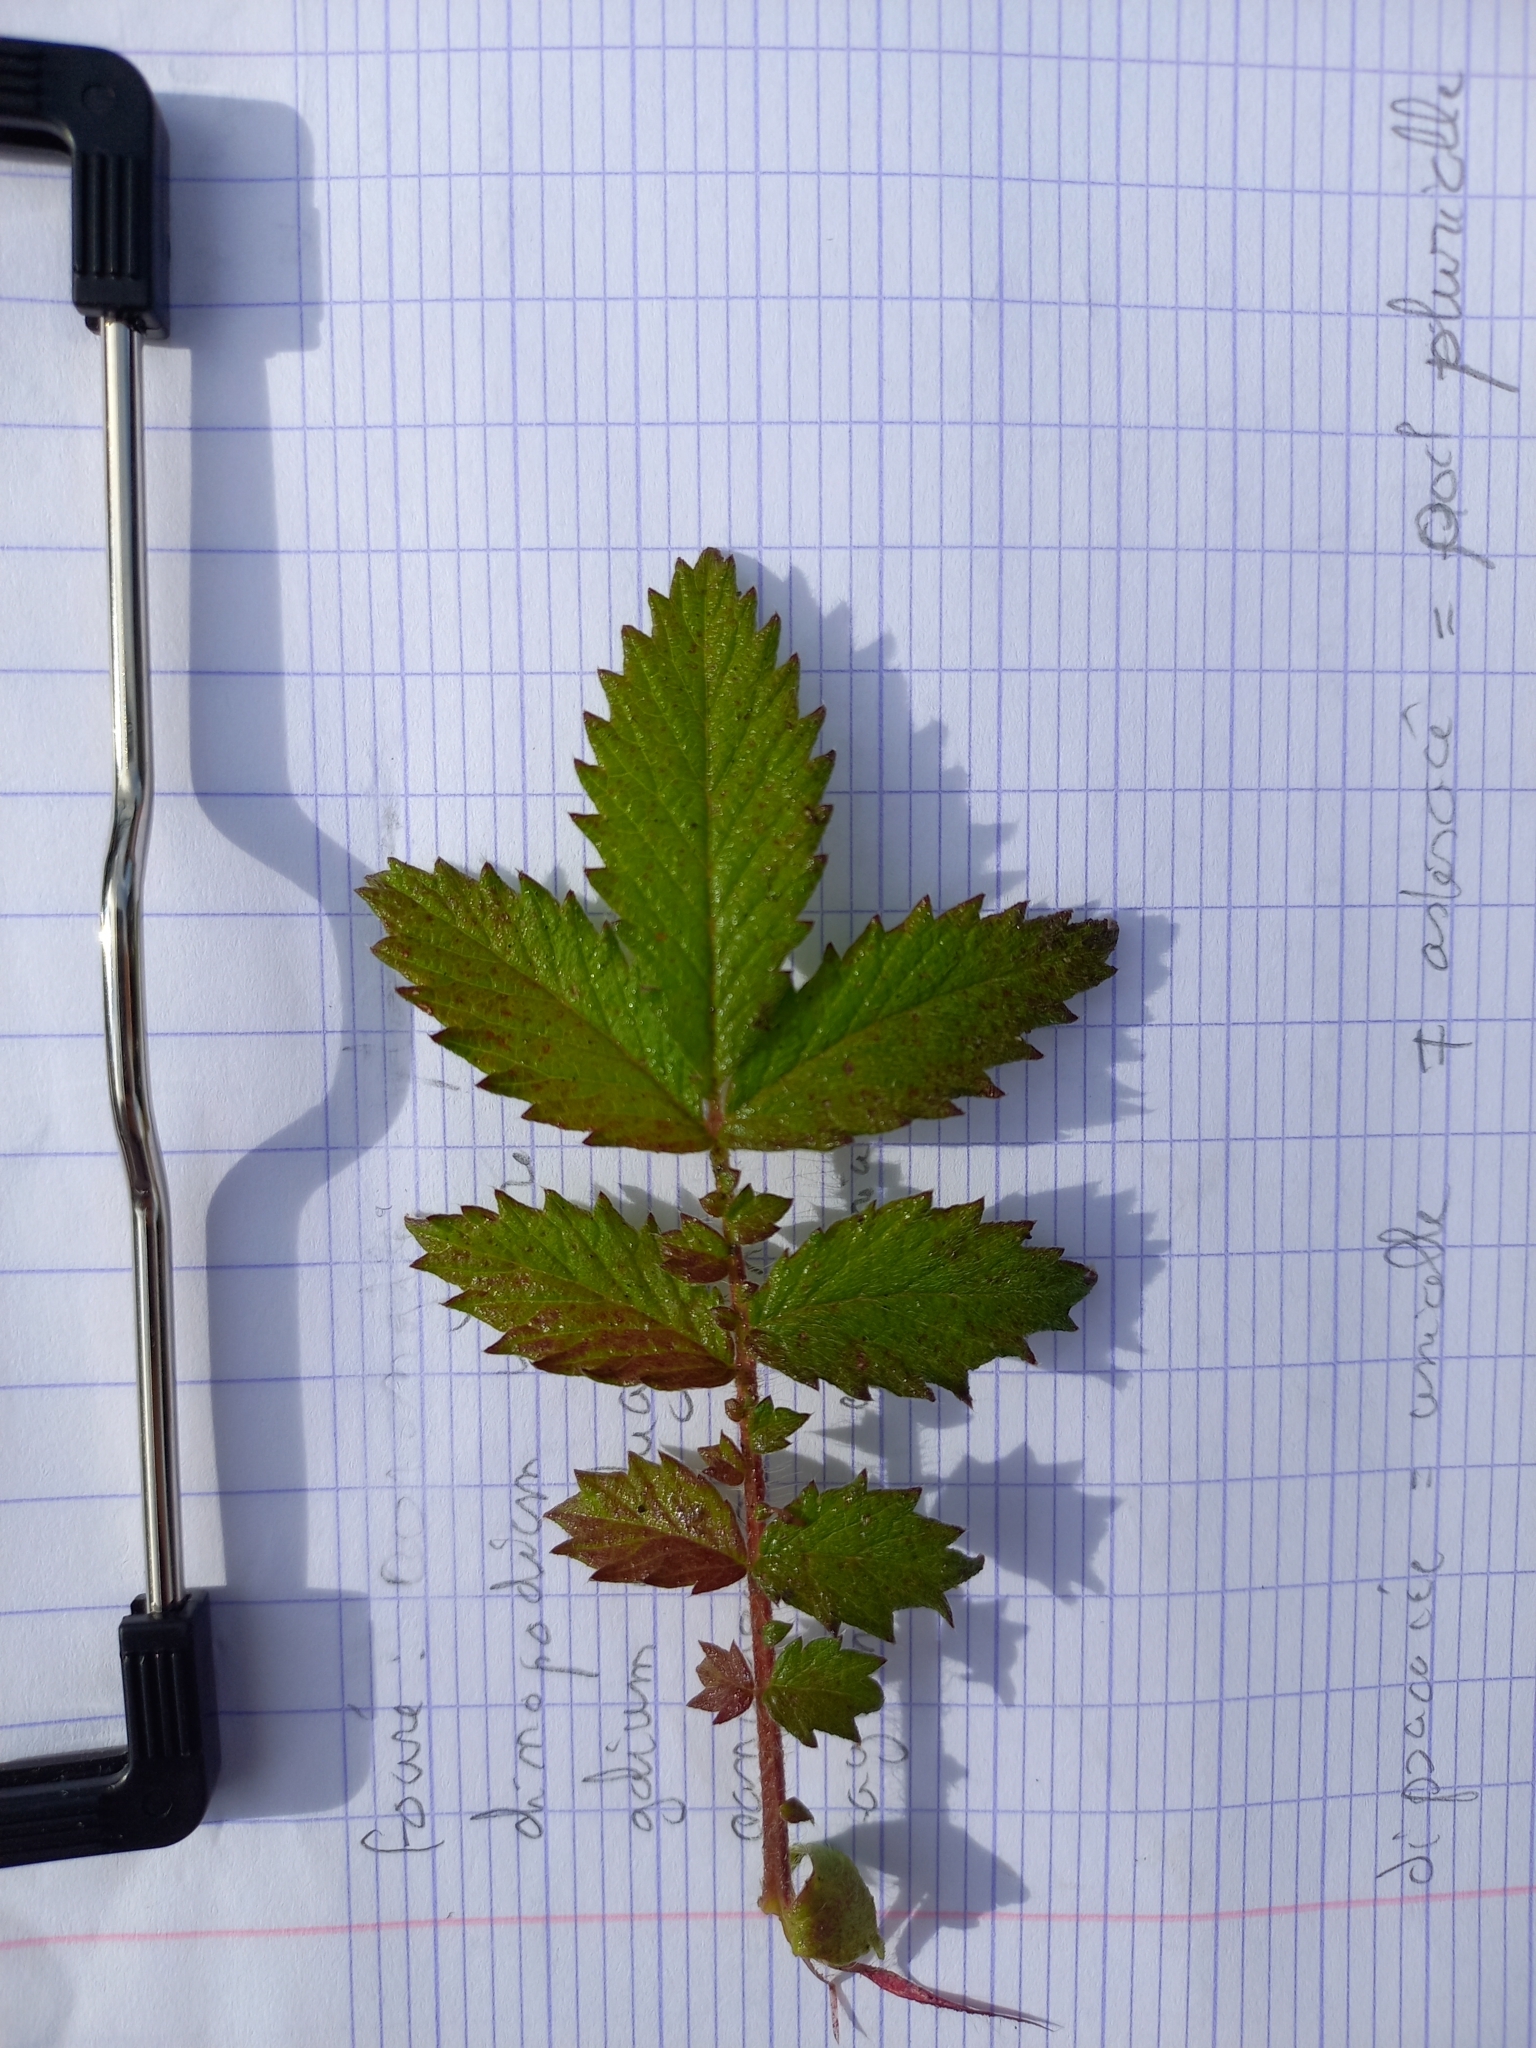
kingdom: Plantae
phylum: Tracheophyta
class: Magnoliopsida
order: Rosales
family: Rosaceae
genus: Agrimonia
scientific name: Agrimonia eupatoria
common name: Agrimony
